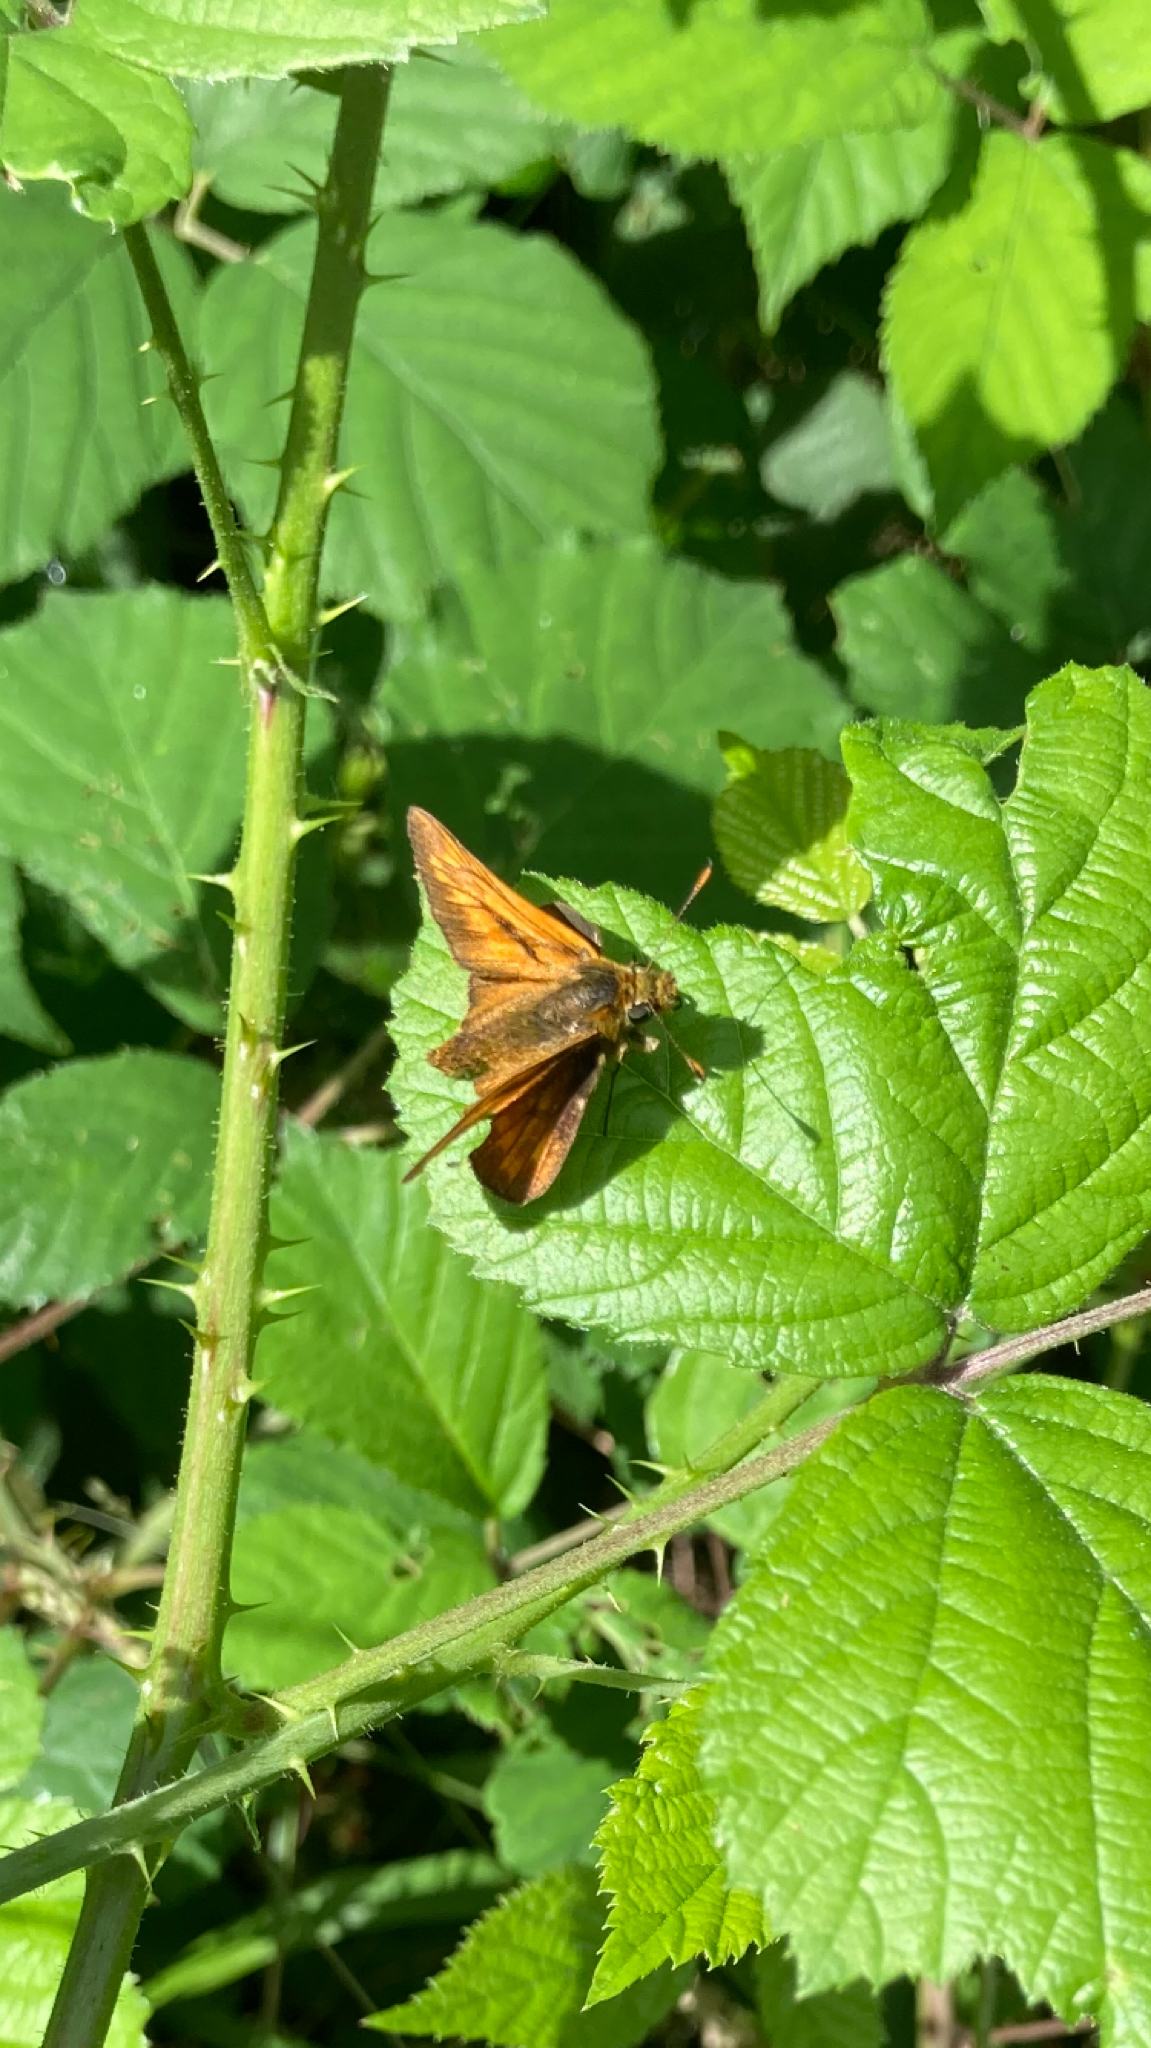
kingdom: Animalia
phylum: Arthropoda
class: Insecta
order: Lepidoptera
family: Hesperiidae
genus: Ochlodes
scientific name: Ochlodes venata
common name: Large skipper
